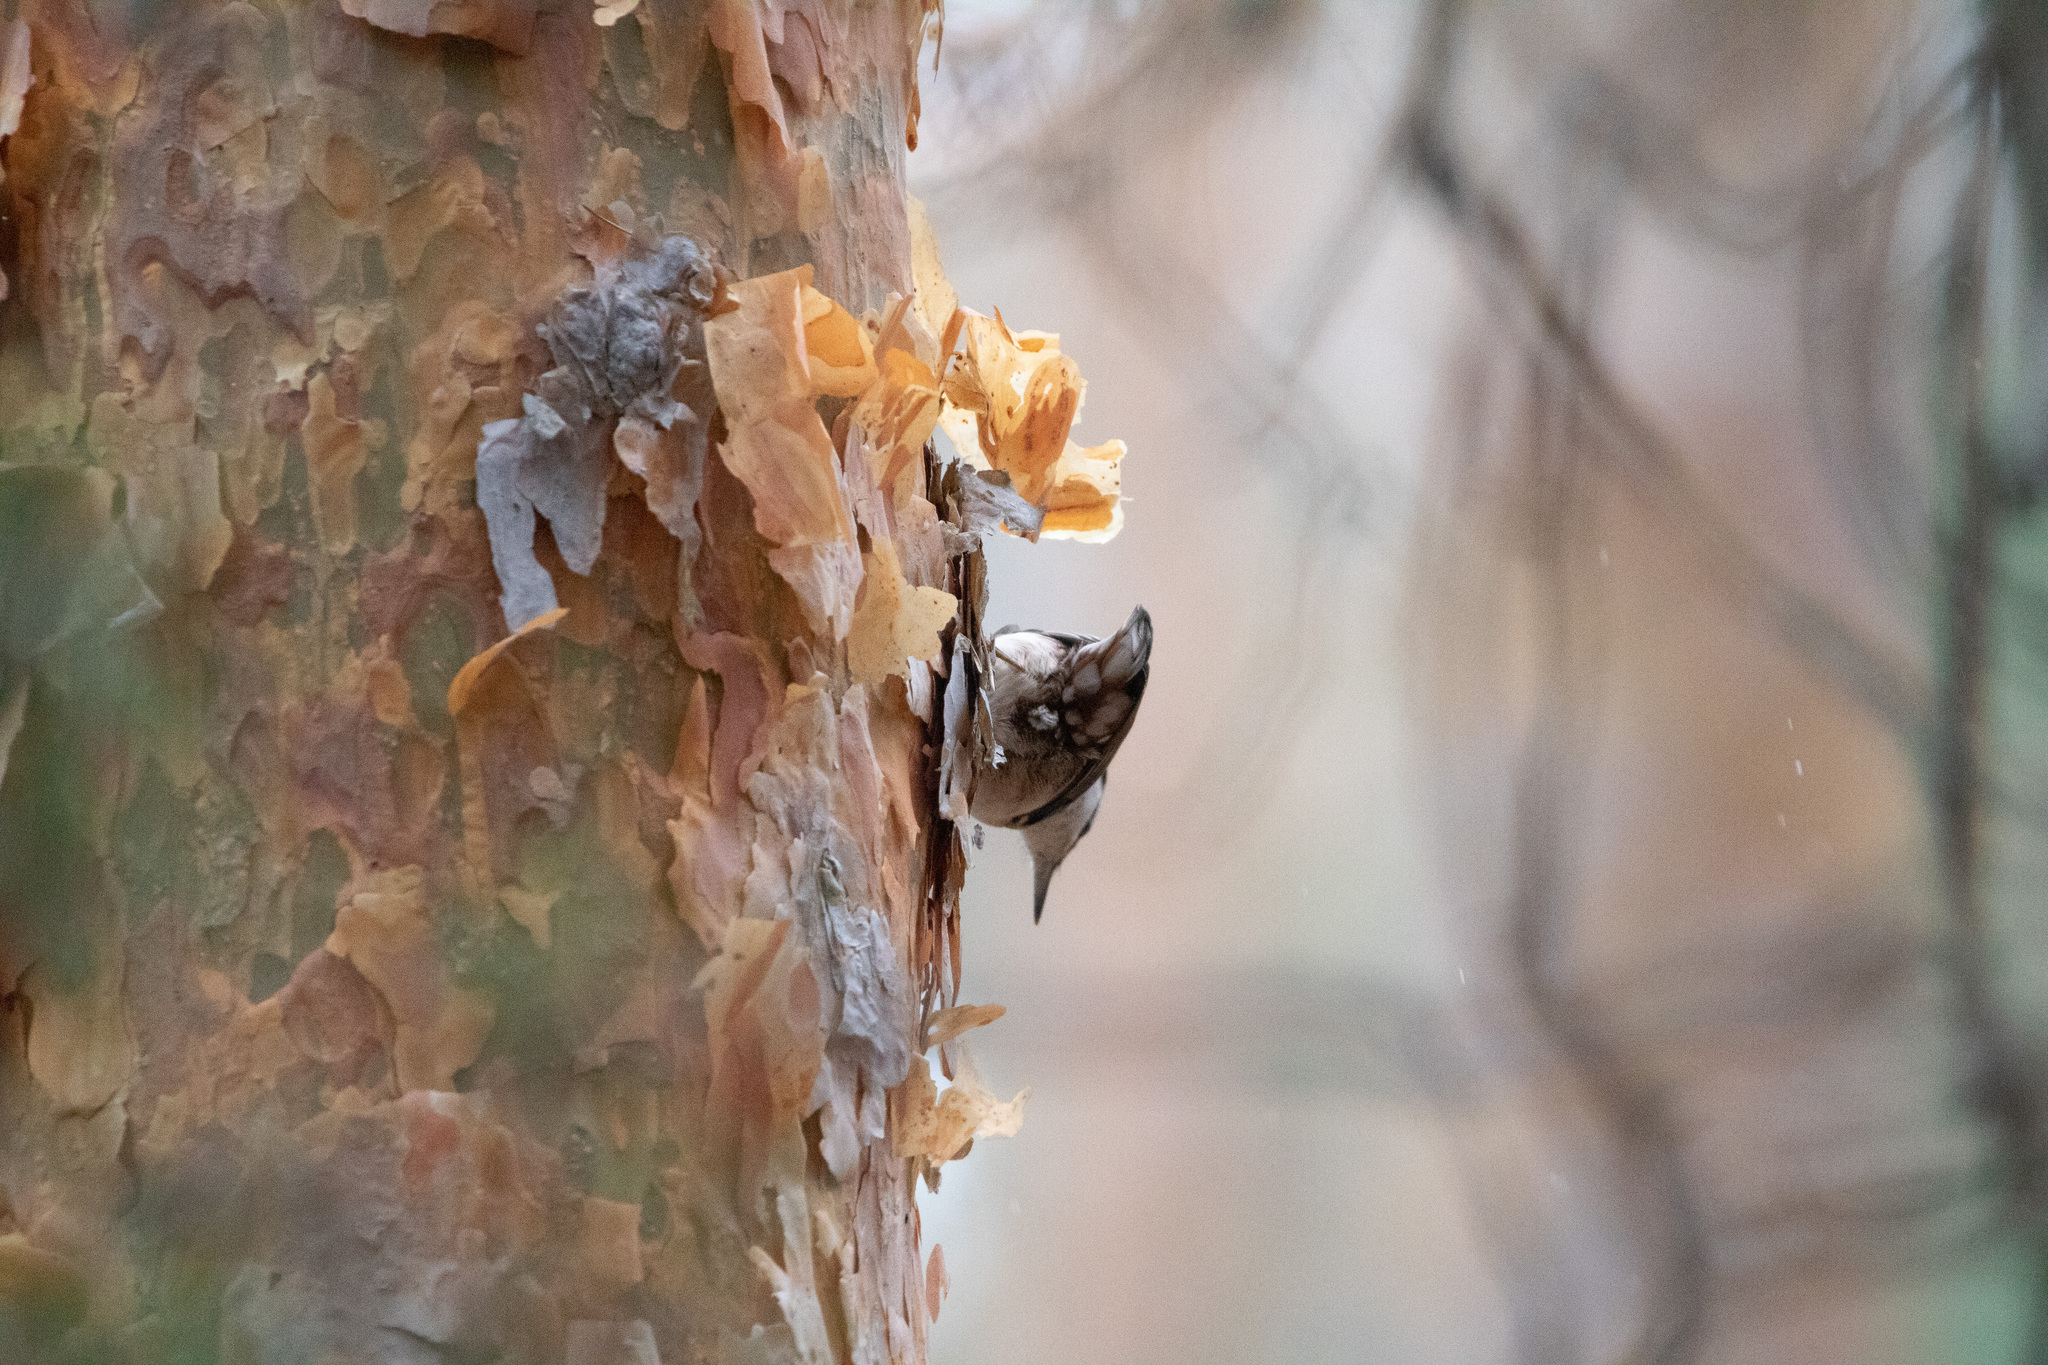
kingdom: Animalia
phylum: Chordata
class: Aves
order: Passeriformes
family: Sittidae
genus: Sitta
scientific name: Sitta europaea
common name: Eurasian nuthatch
